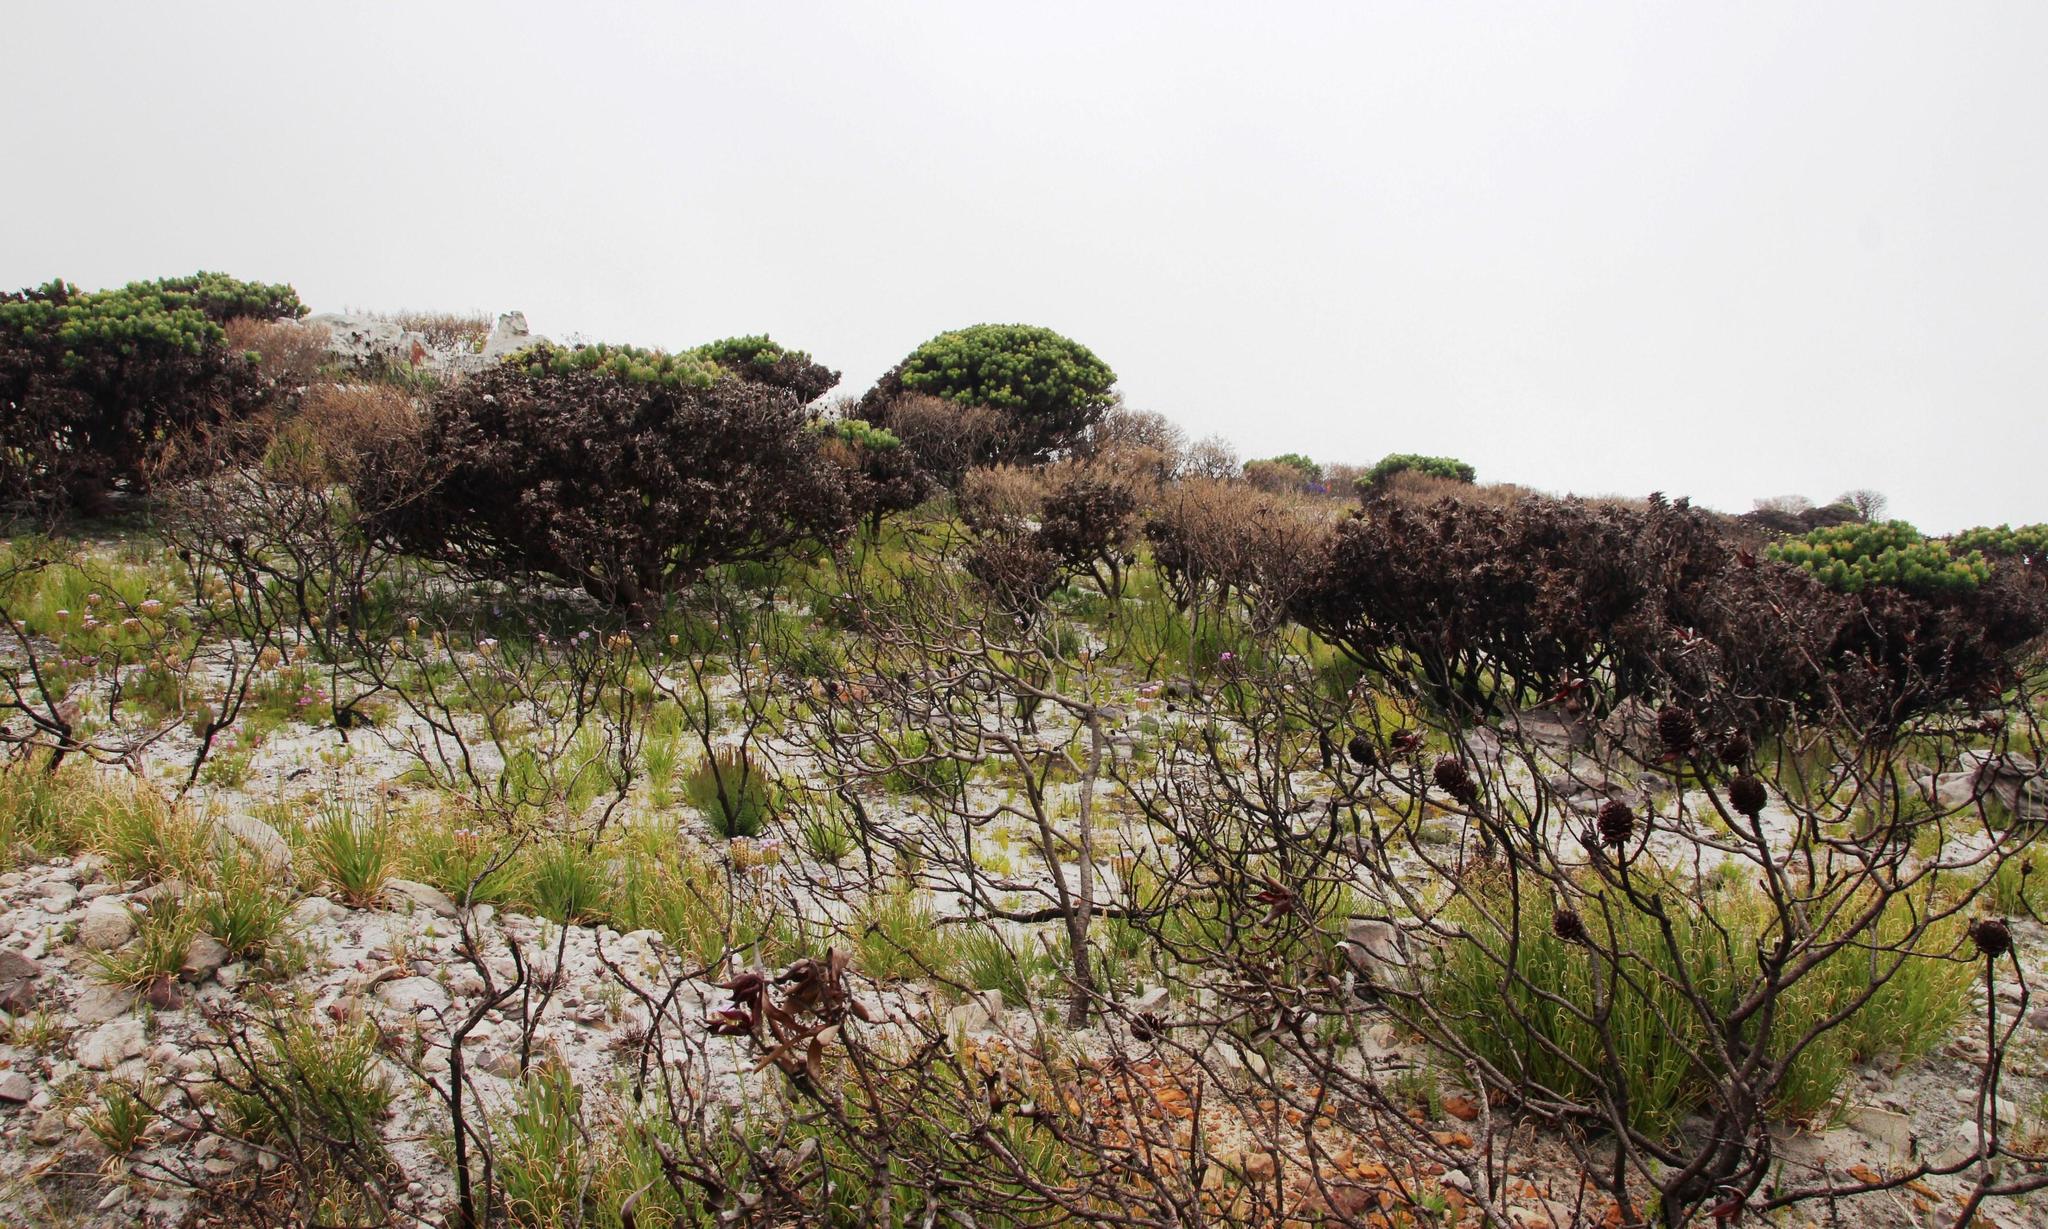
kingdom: Plantae
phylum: Tracheophyta
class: Magnoliopsida
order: Proteales
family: Proteaceae
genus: Mimetes
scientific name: Mimetes fimbriifolius
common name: Fringed bottlebrush
